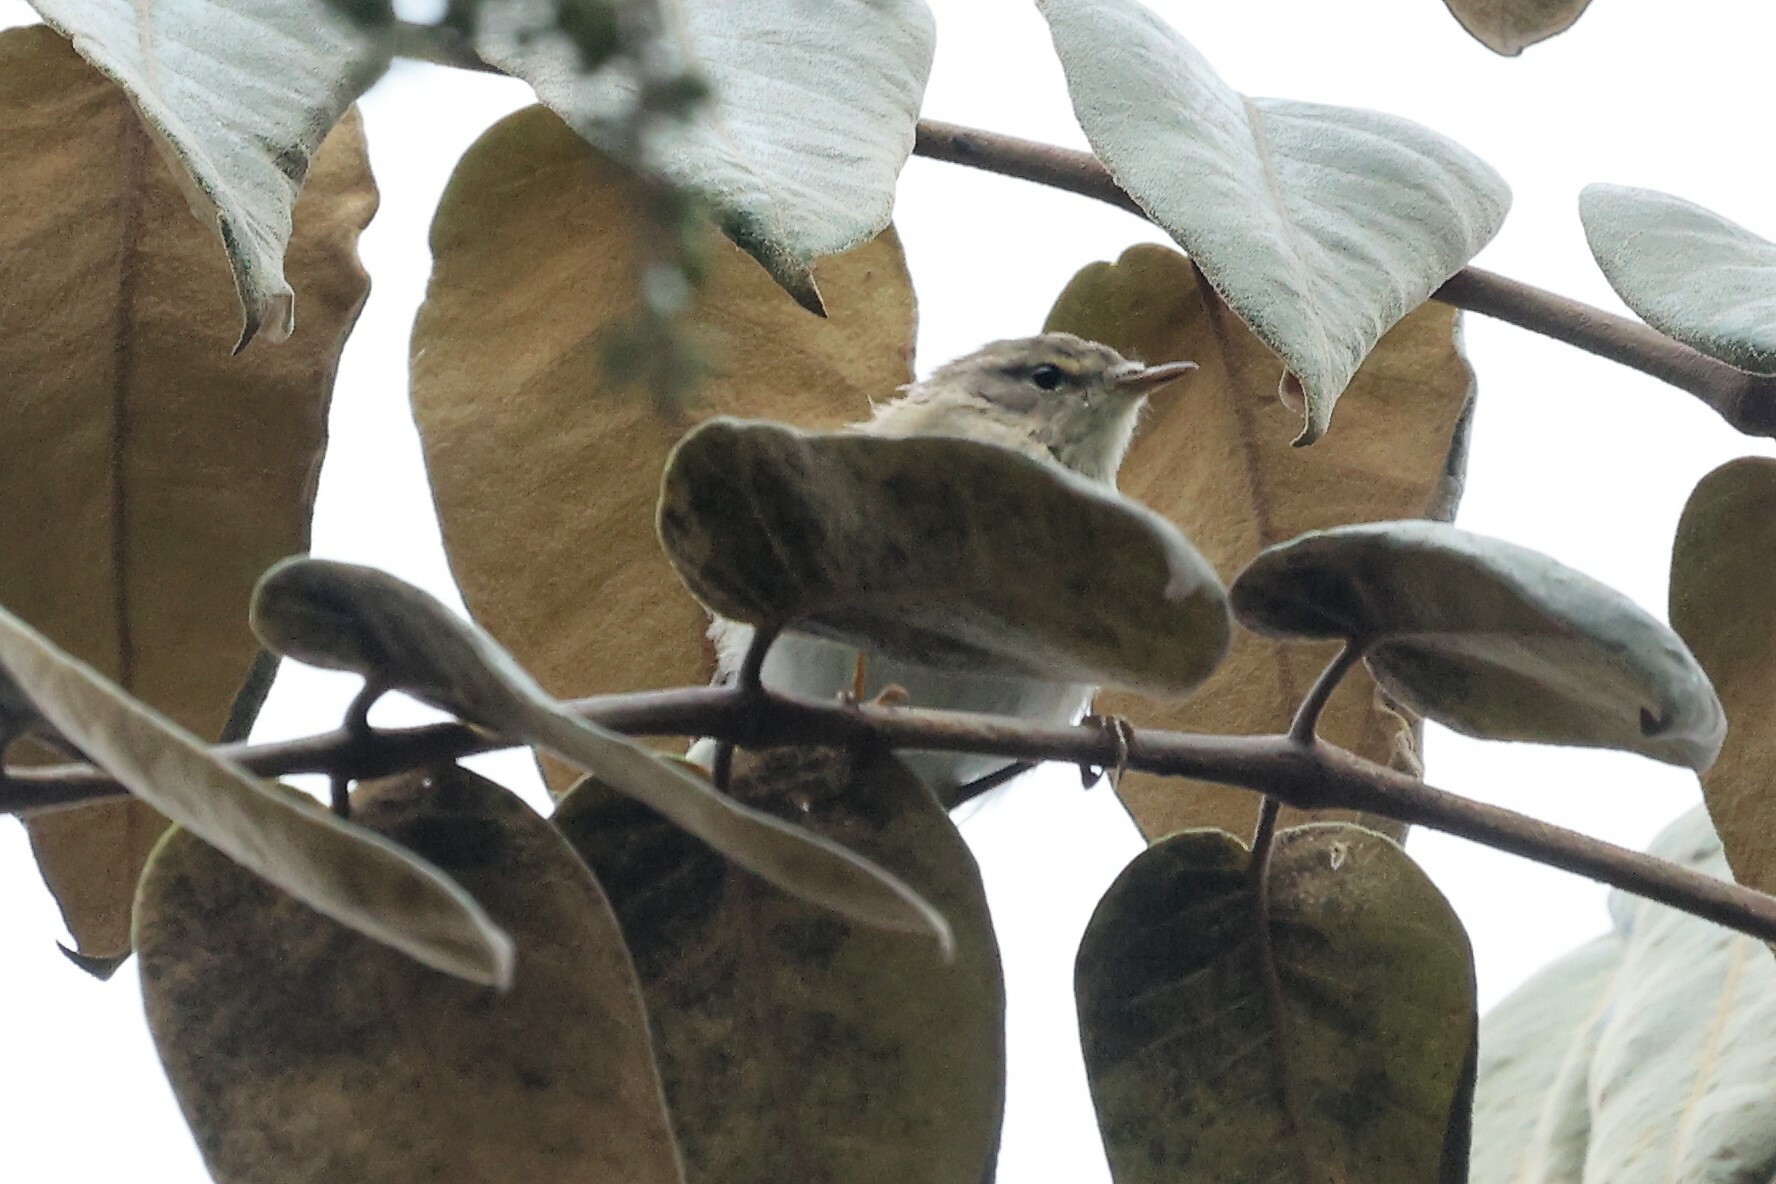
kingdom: Animalia
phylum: Chordata
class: Aves
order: Passeriformes
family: Phylloscopidae
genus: Phylloscopus
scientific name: Phylloscopus trochilus
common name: Willow warbler
